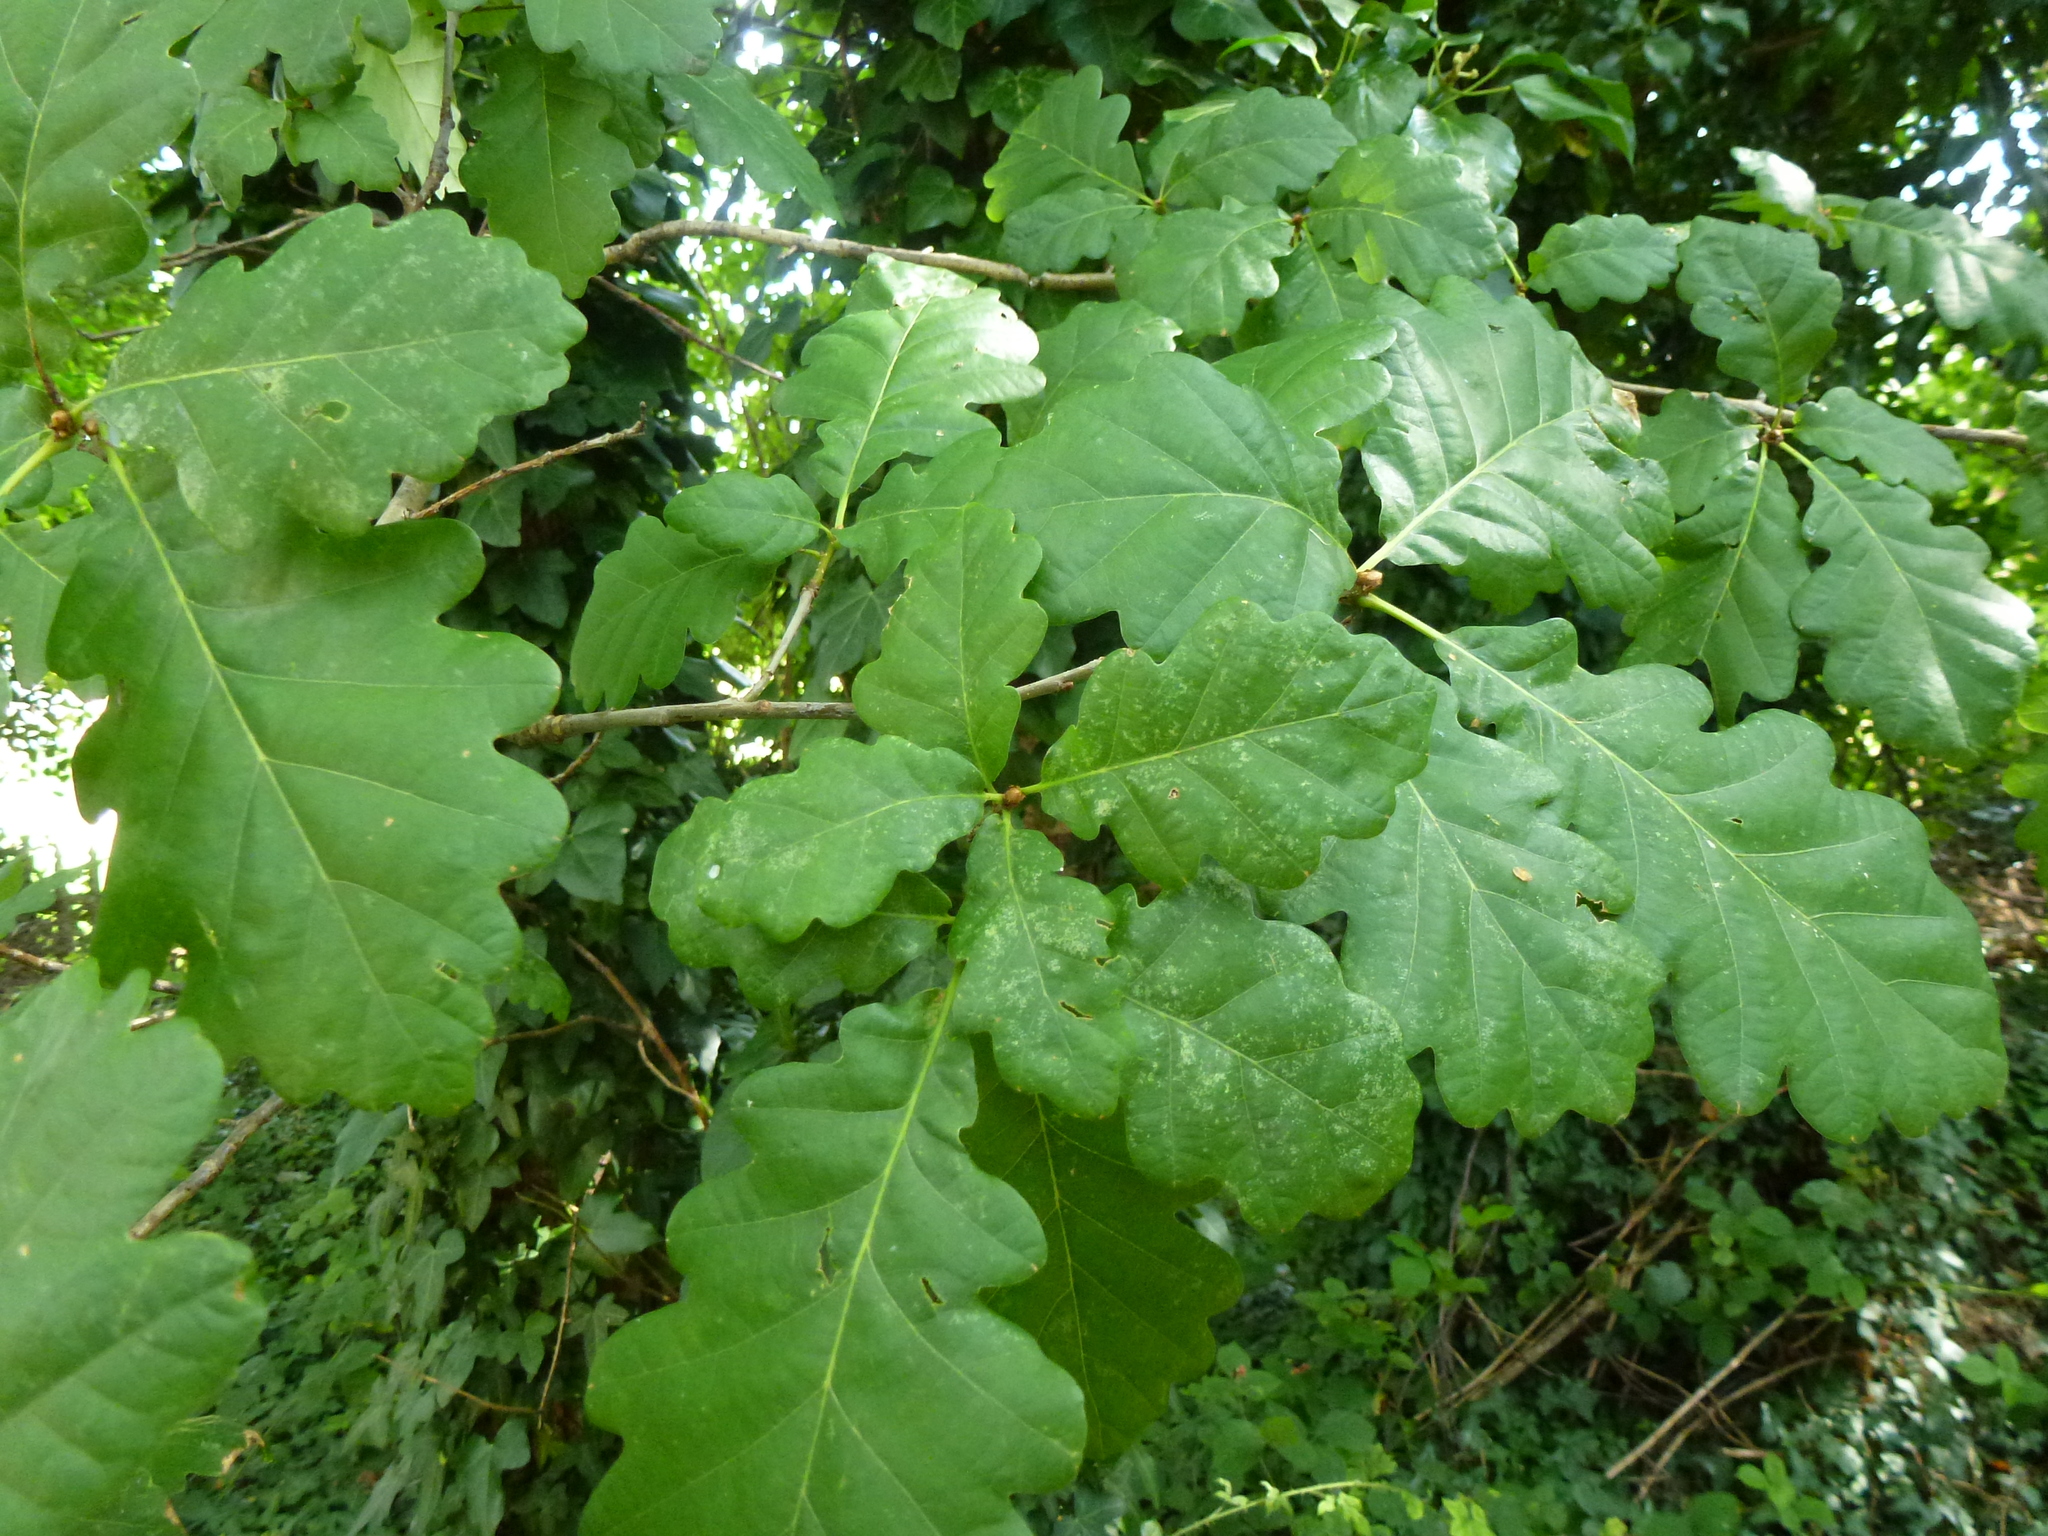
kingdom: Plantae
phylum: Tracheophyta
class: Magnoliopsida
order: Fagales
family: Fagaceae
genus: Quercus
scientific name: Quercus petraea
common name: Sessile oak
